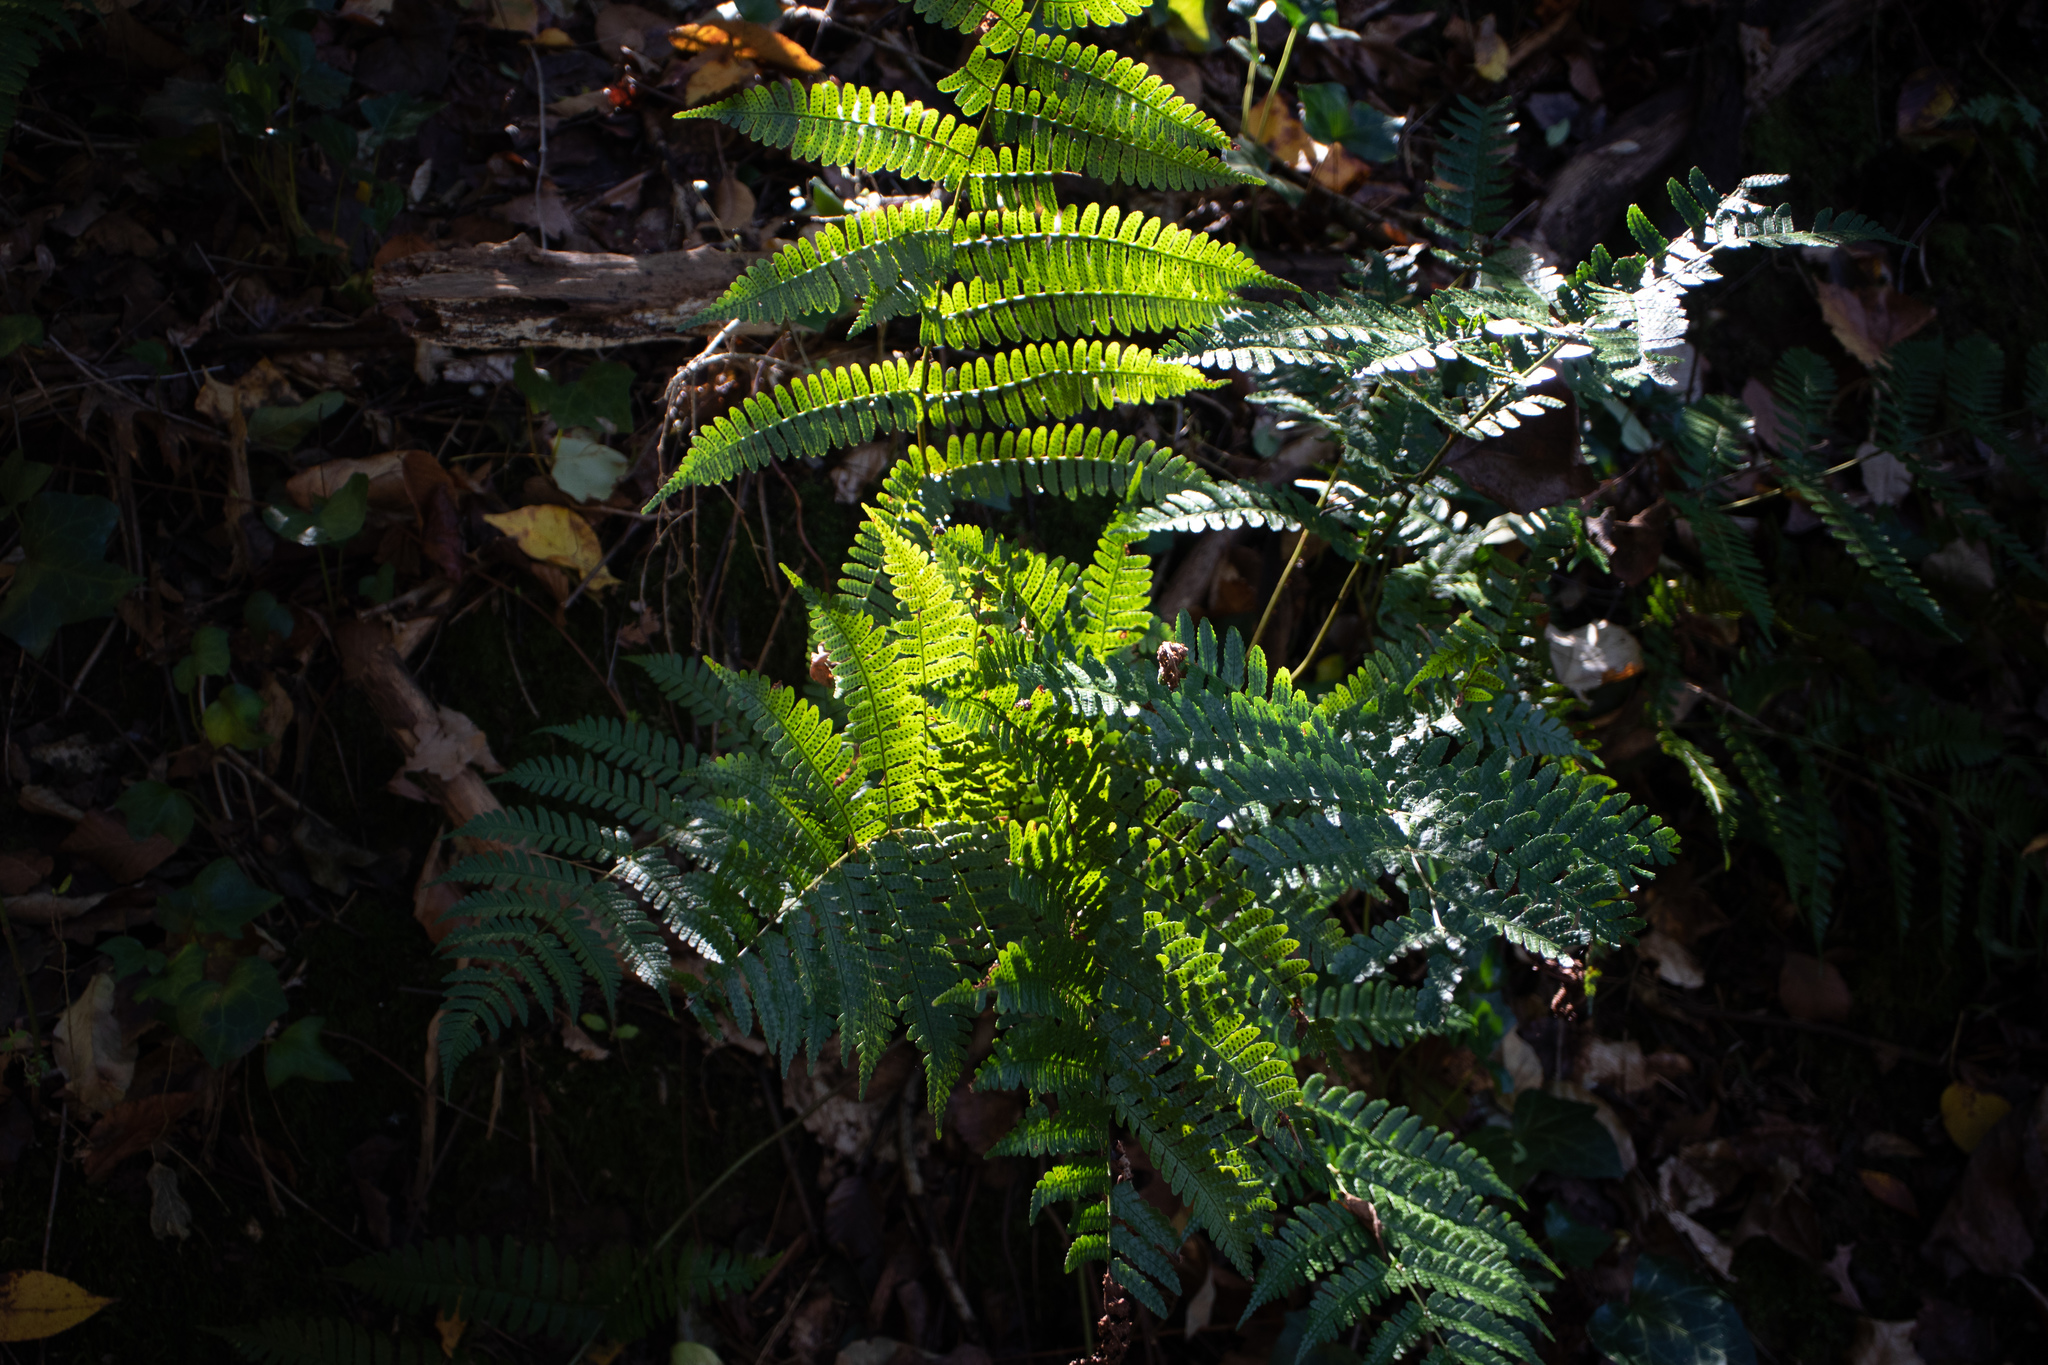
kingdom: Plantae
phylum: Tracheophyta
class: Polypodiopsida
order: Polypodiales
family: Dryopteridaceae
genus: Dryopteris
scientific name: Dryopteris erythrosora
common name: Autumn fern
